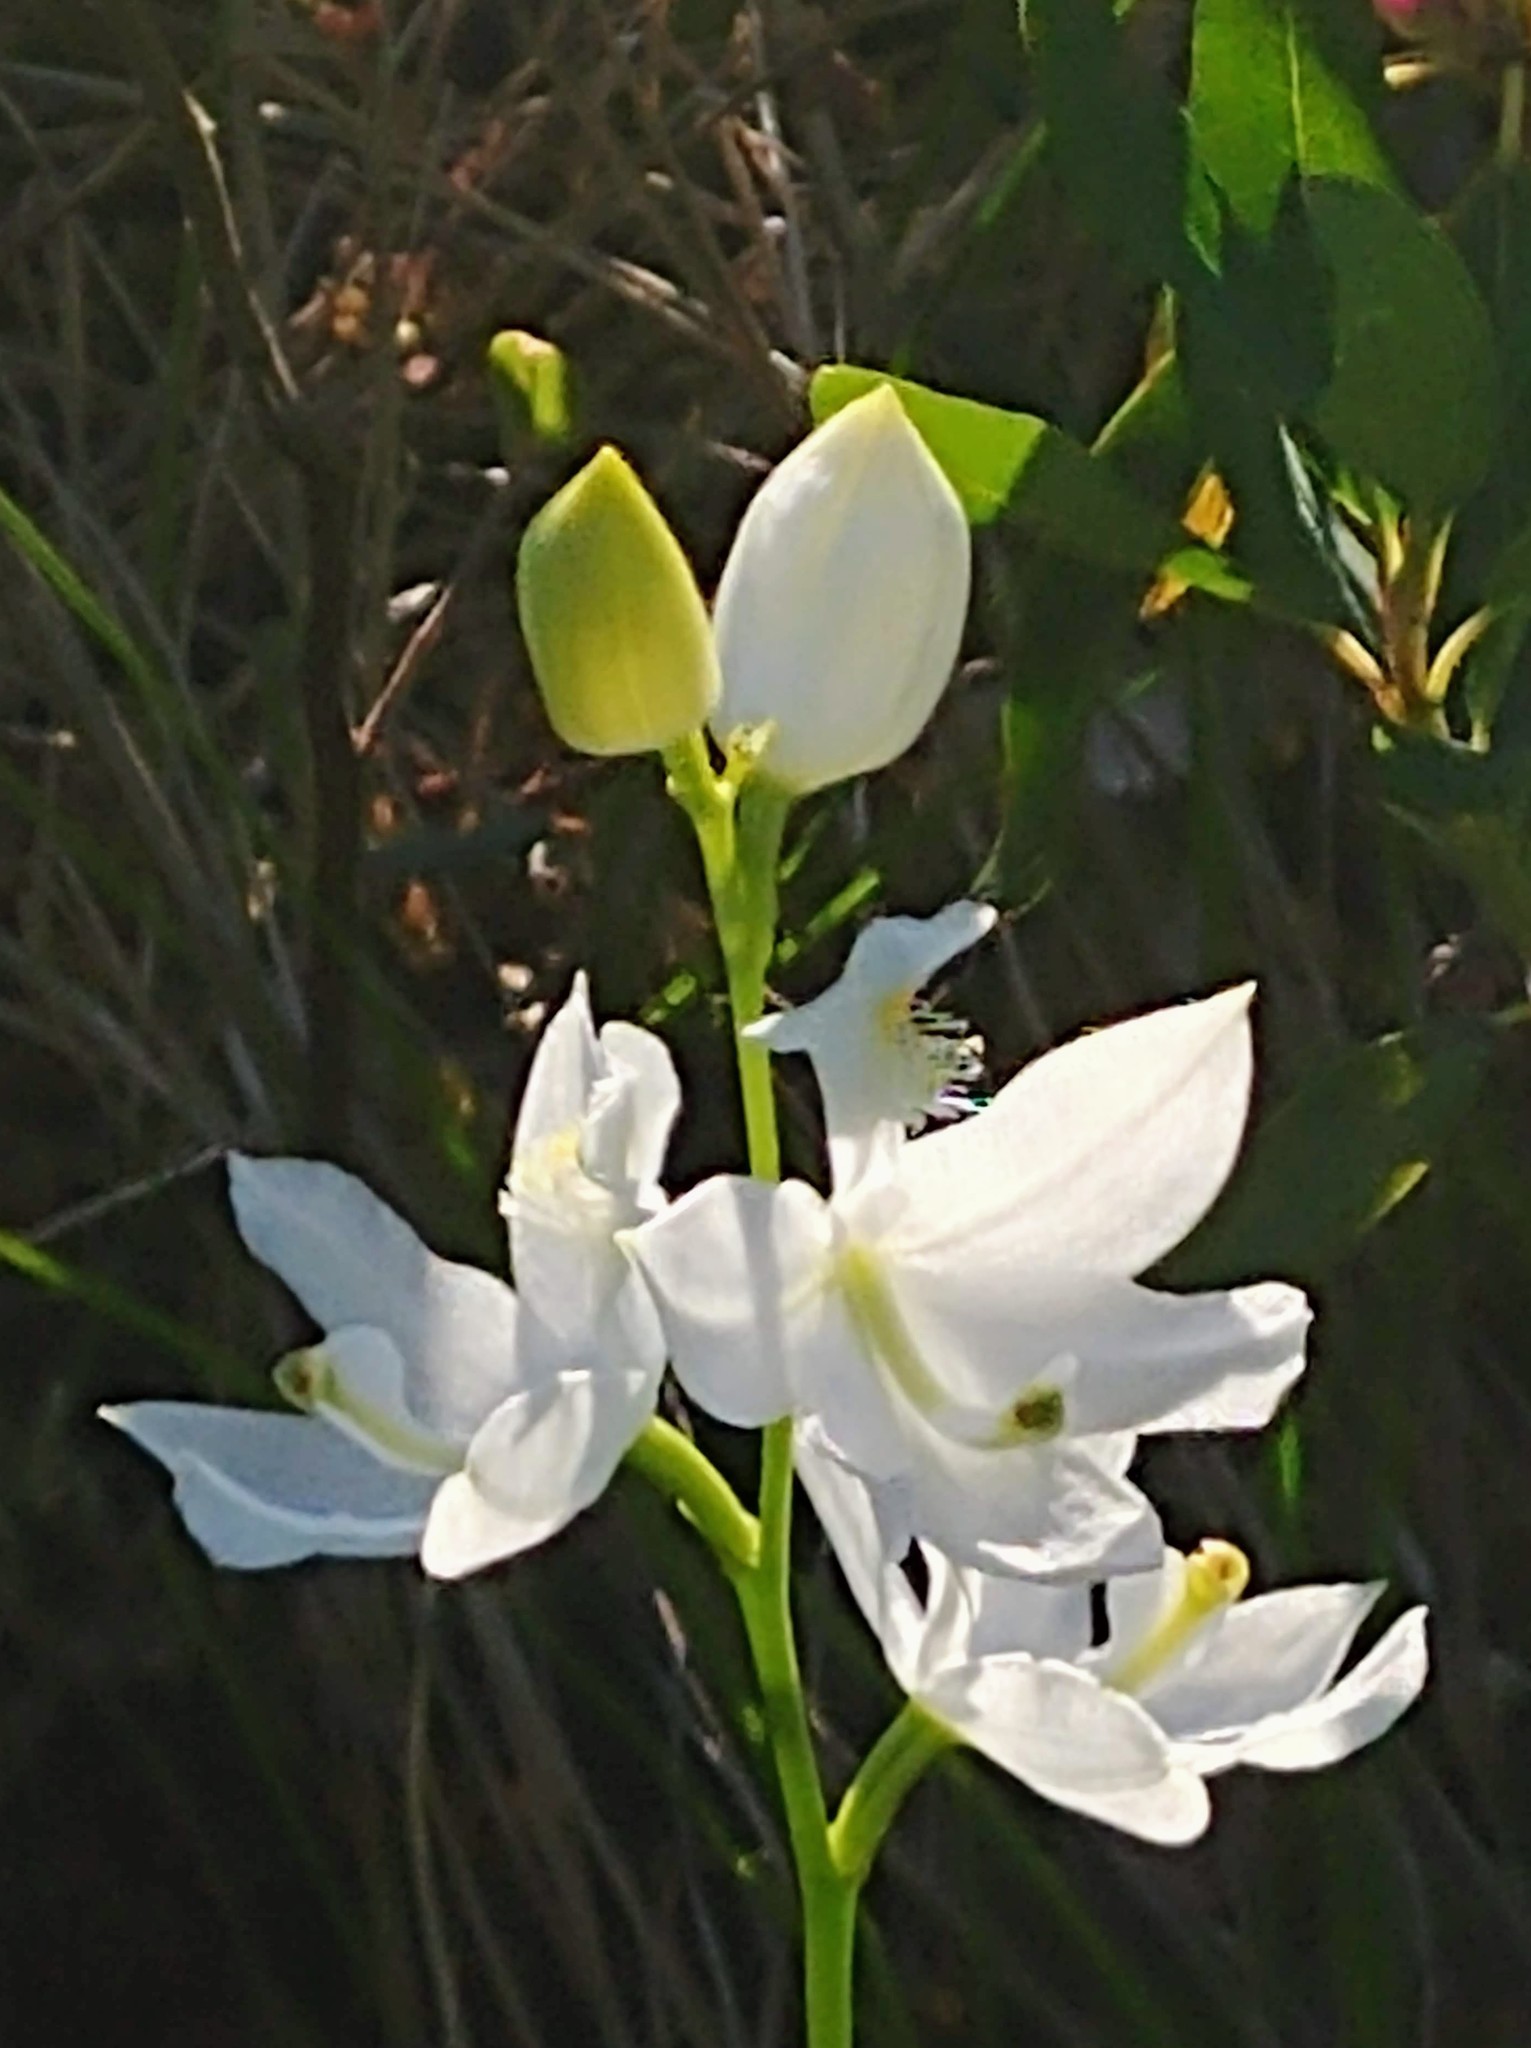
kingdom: Plantae
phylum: Tracheophyta
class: Liliopsida
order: Asparagales
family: Orchidaceae
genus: Calopogon
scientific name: Calopogon tuberosus
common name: Grass-pink
